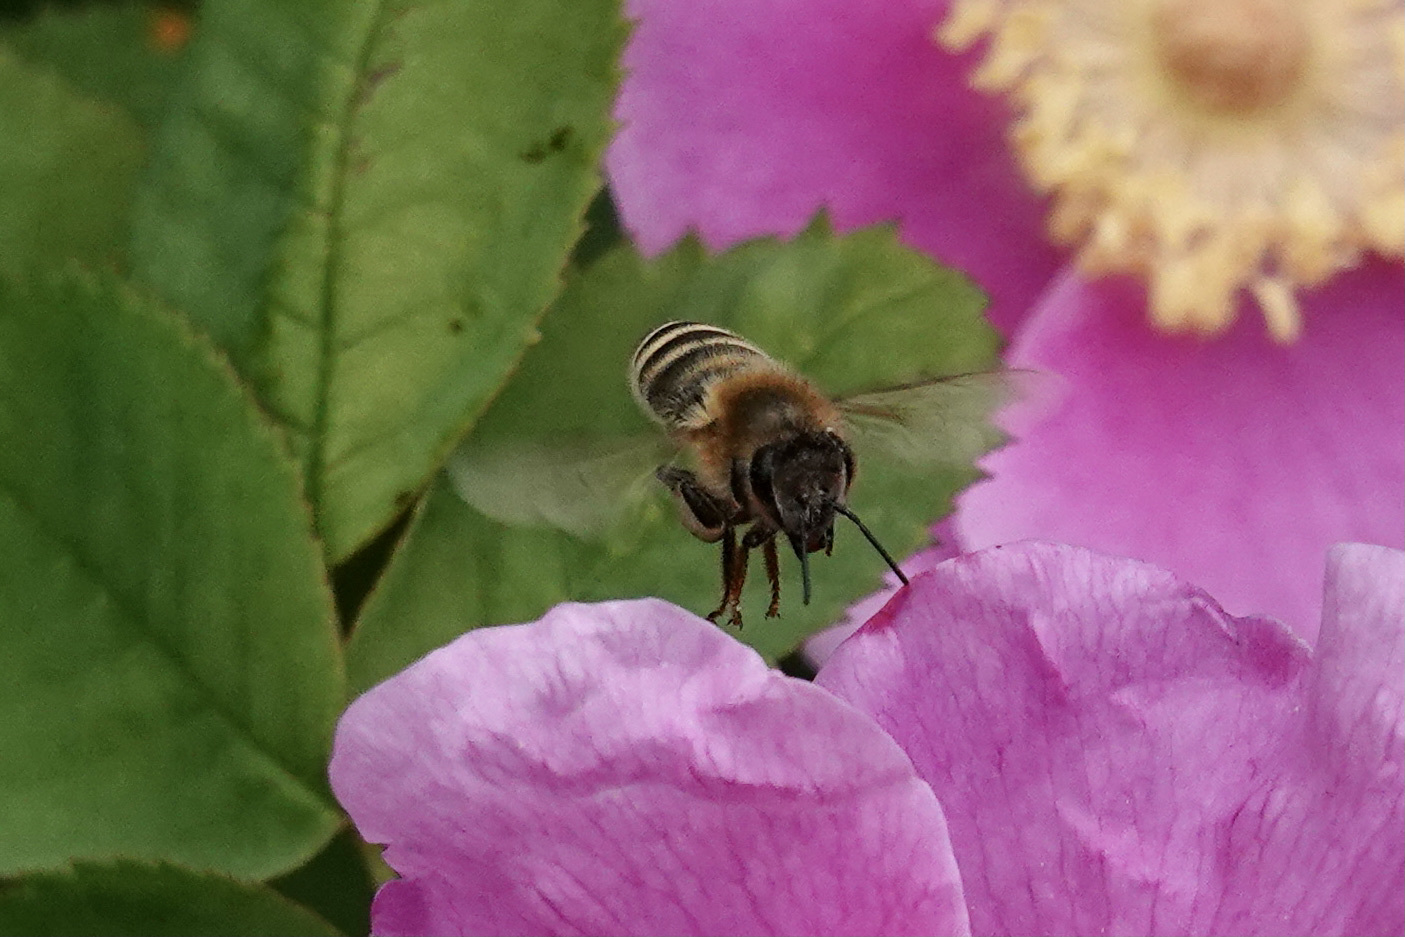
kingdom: Animalia
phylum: Arthropoda
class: Insecta
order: Hymenoptera
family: Apidae
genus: Apis
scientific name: Apis mellifera
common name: Honey bee
